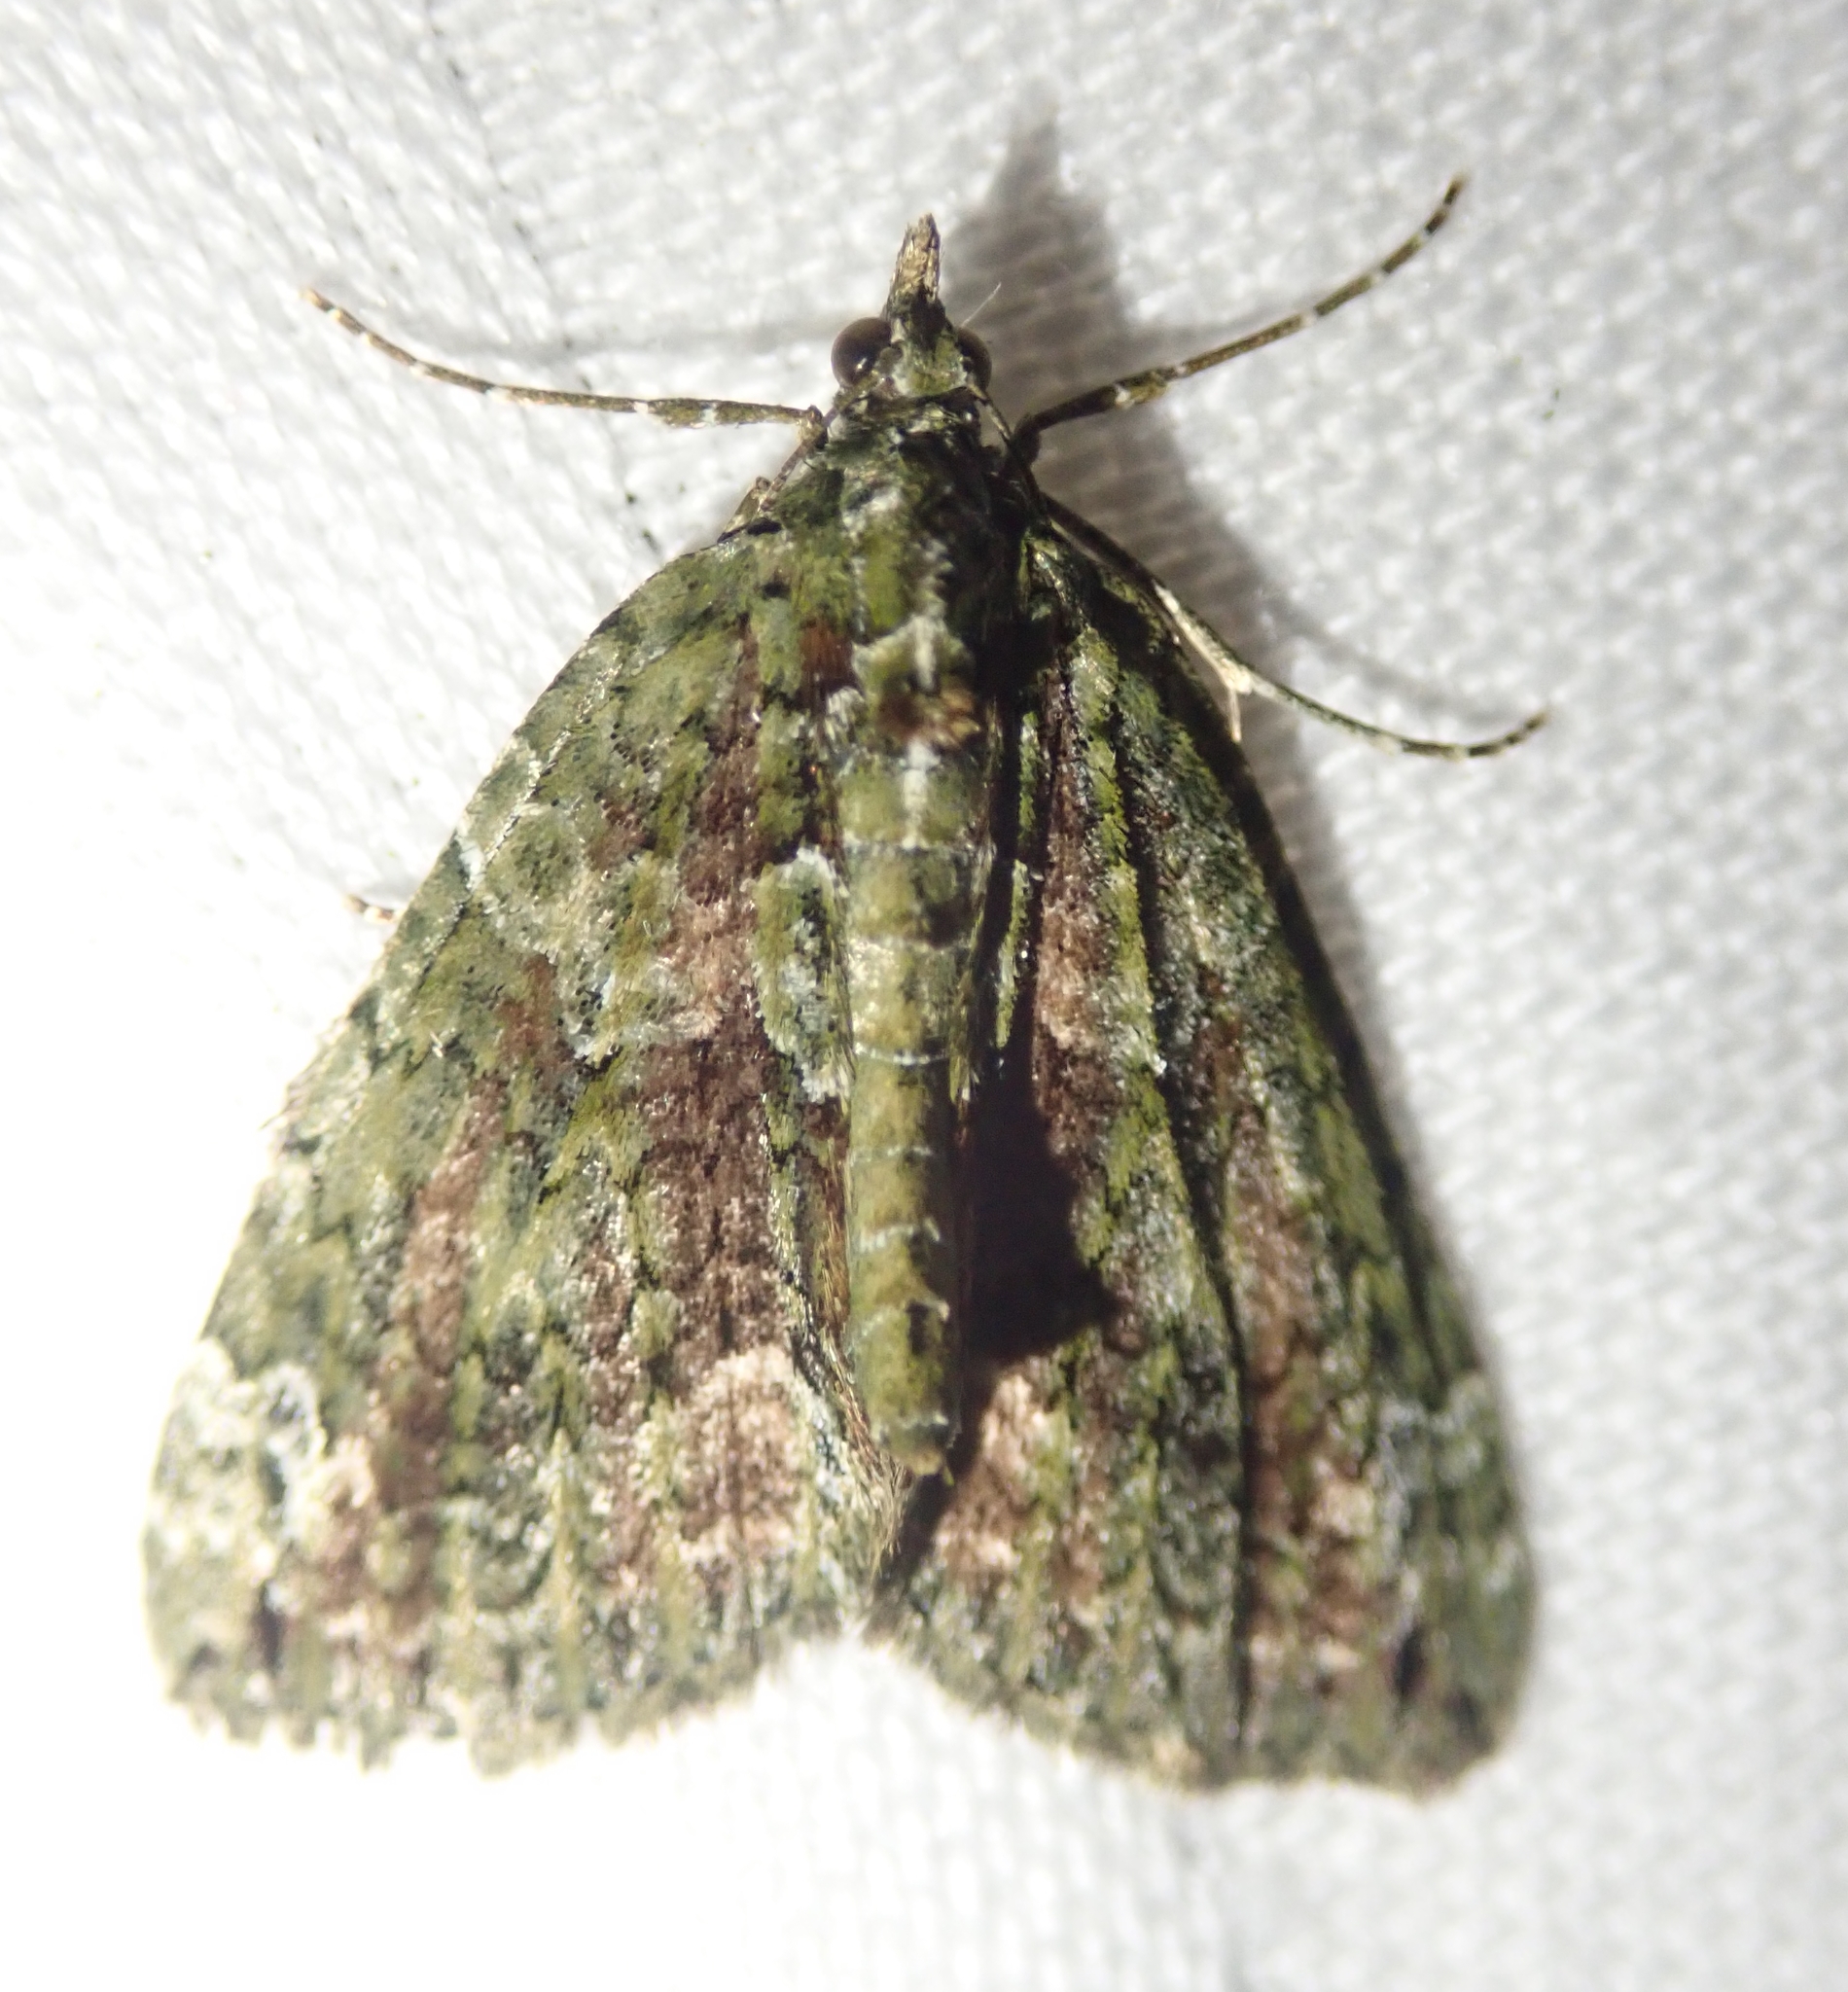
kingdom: Animalia
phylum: Arthropoda
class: Insecta
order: Lepidoptera
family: Geometridae
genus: Chloroclysta
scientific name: Chloroclysta siterata
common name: Red-green carpet
